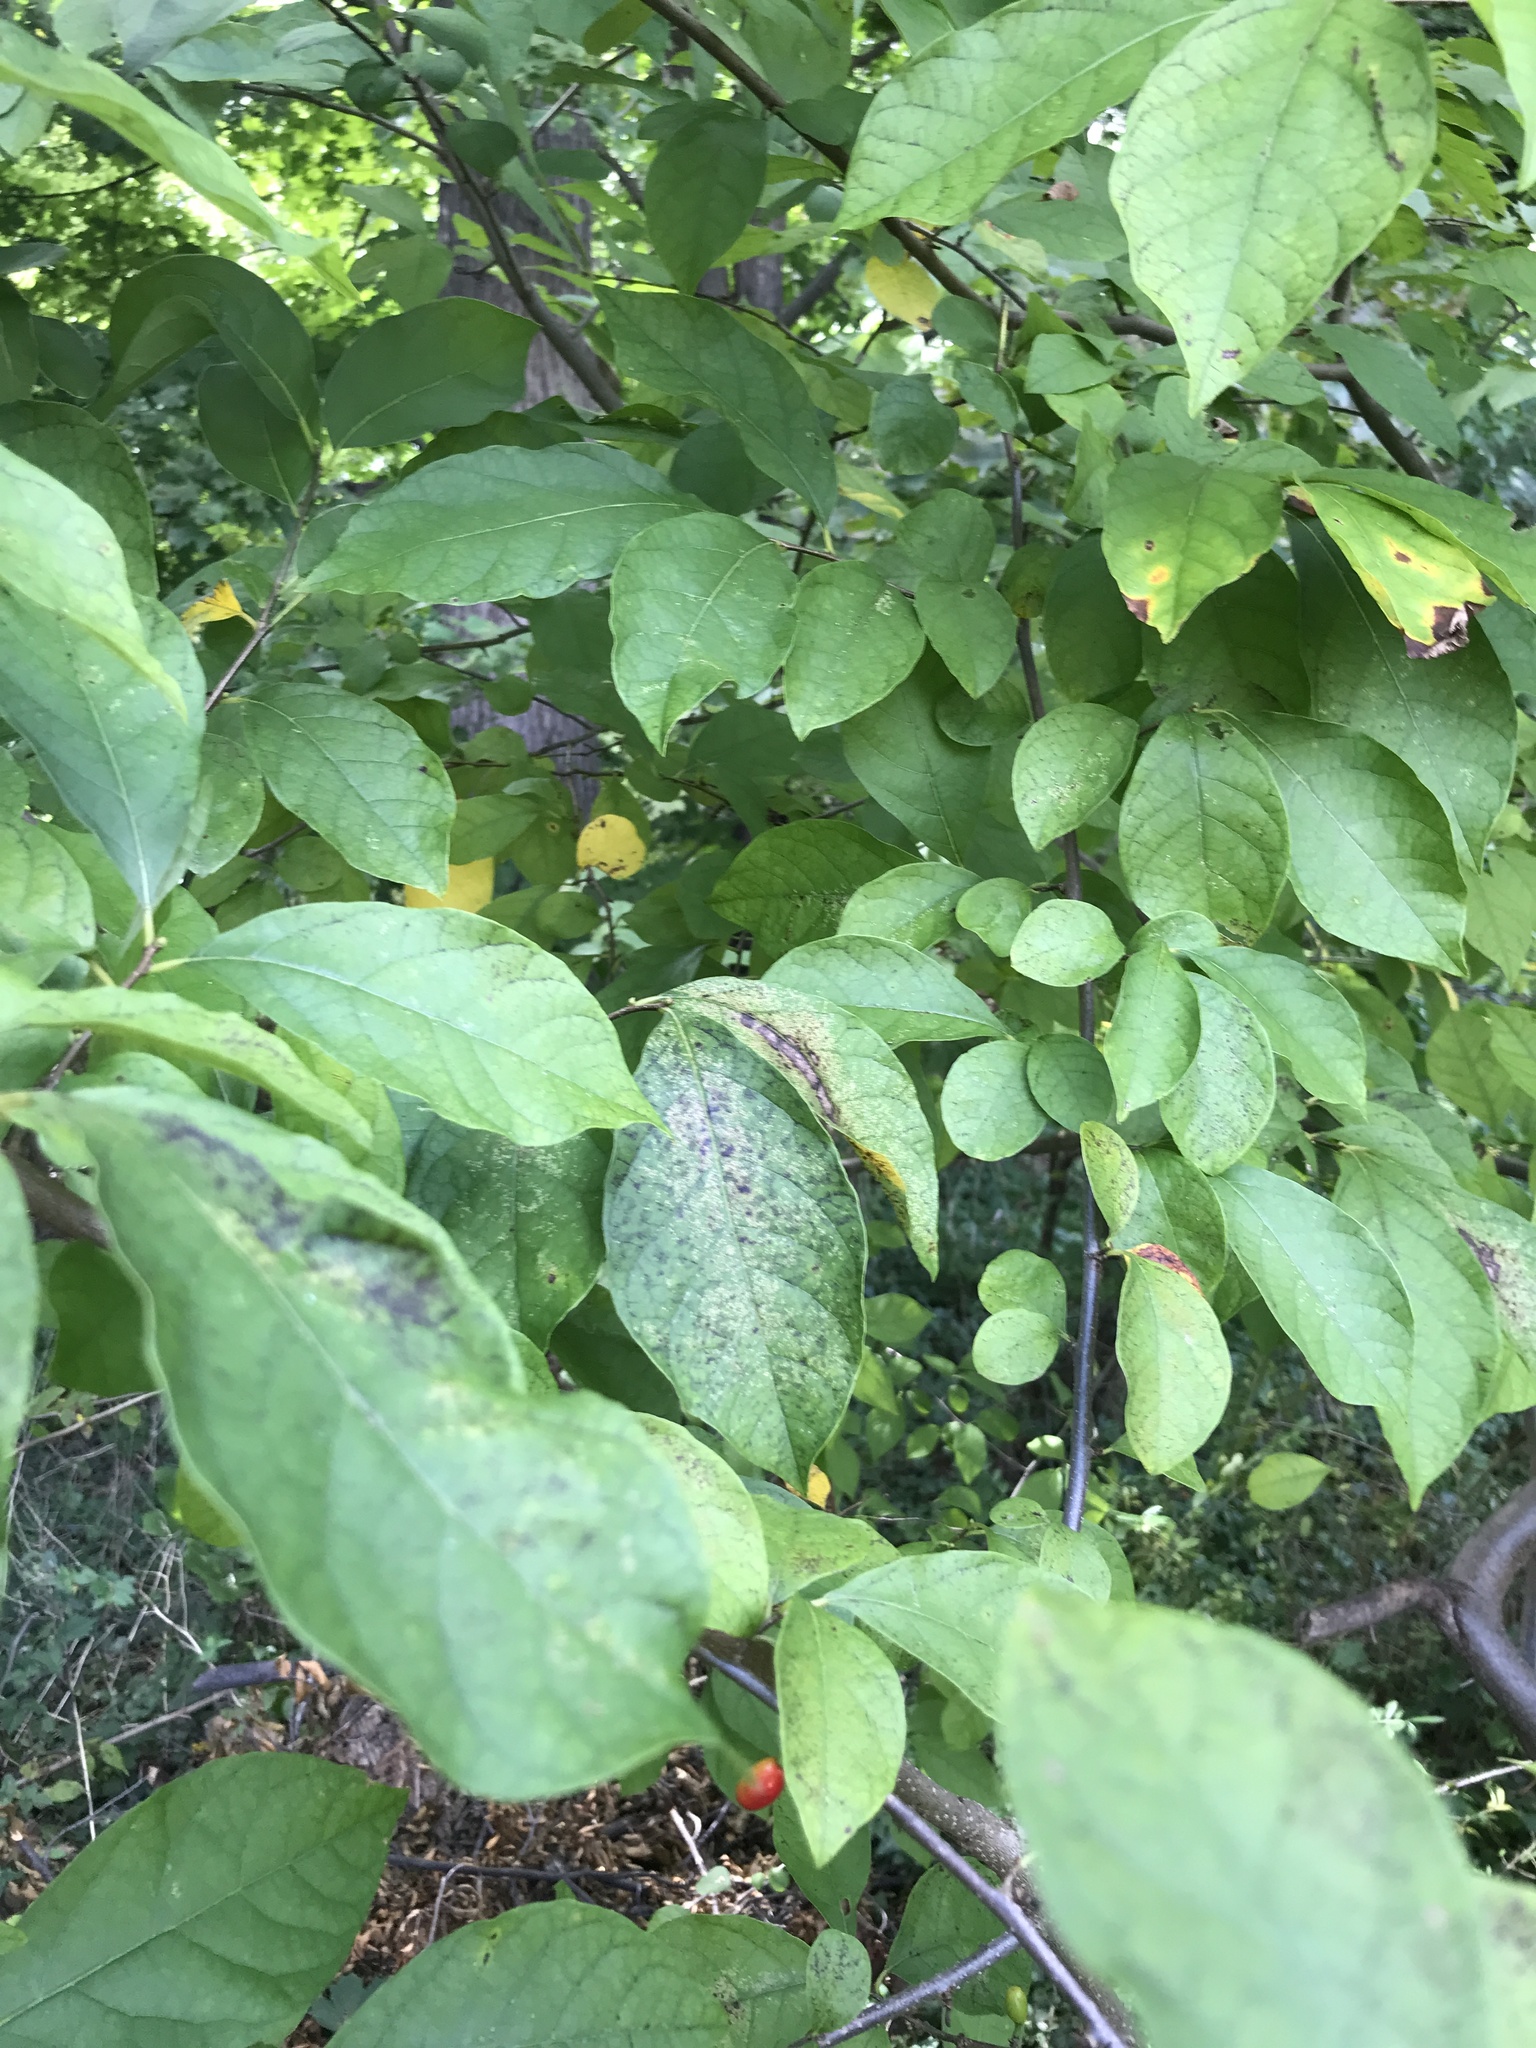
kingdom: Plantae
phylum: Tracheophyta
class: Magnoliopsida
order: Laurales
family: Lauraceae
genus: Lindera
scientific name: Lindera benzoin
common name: Spicebush
